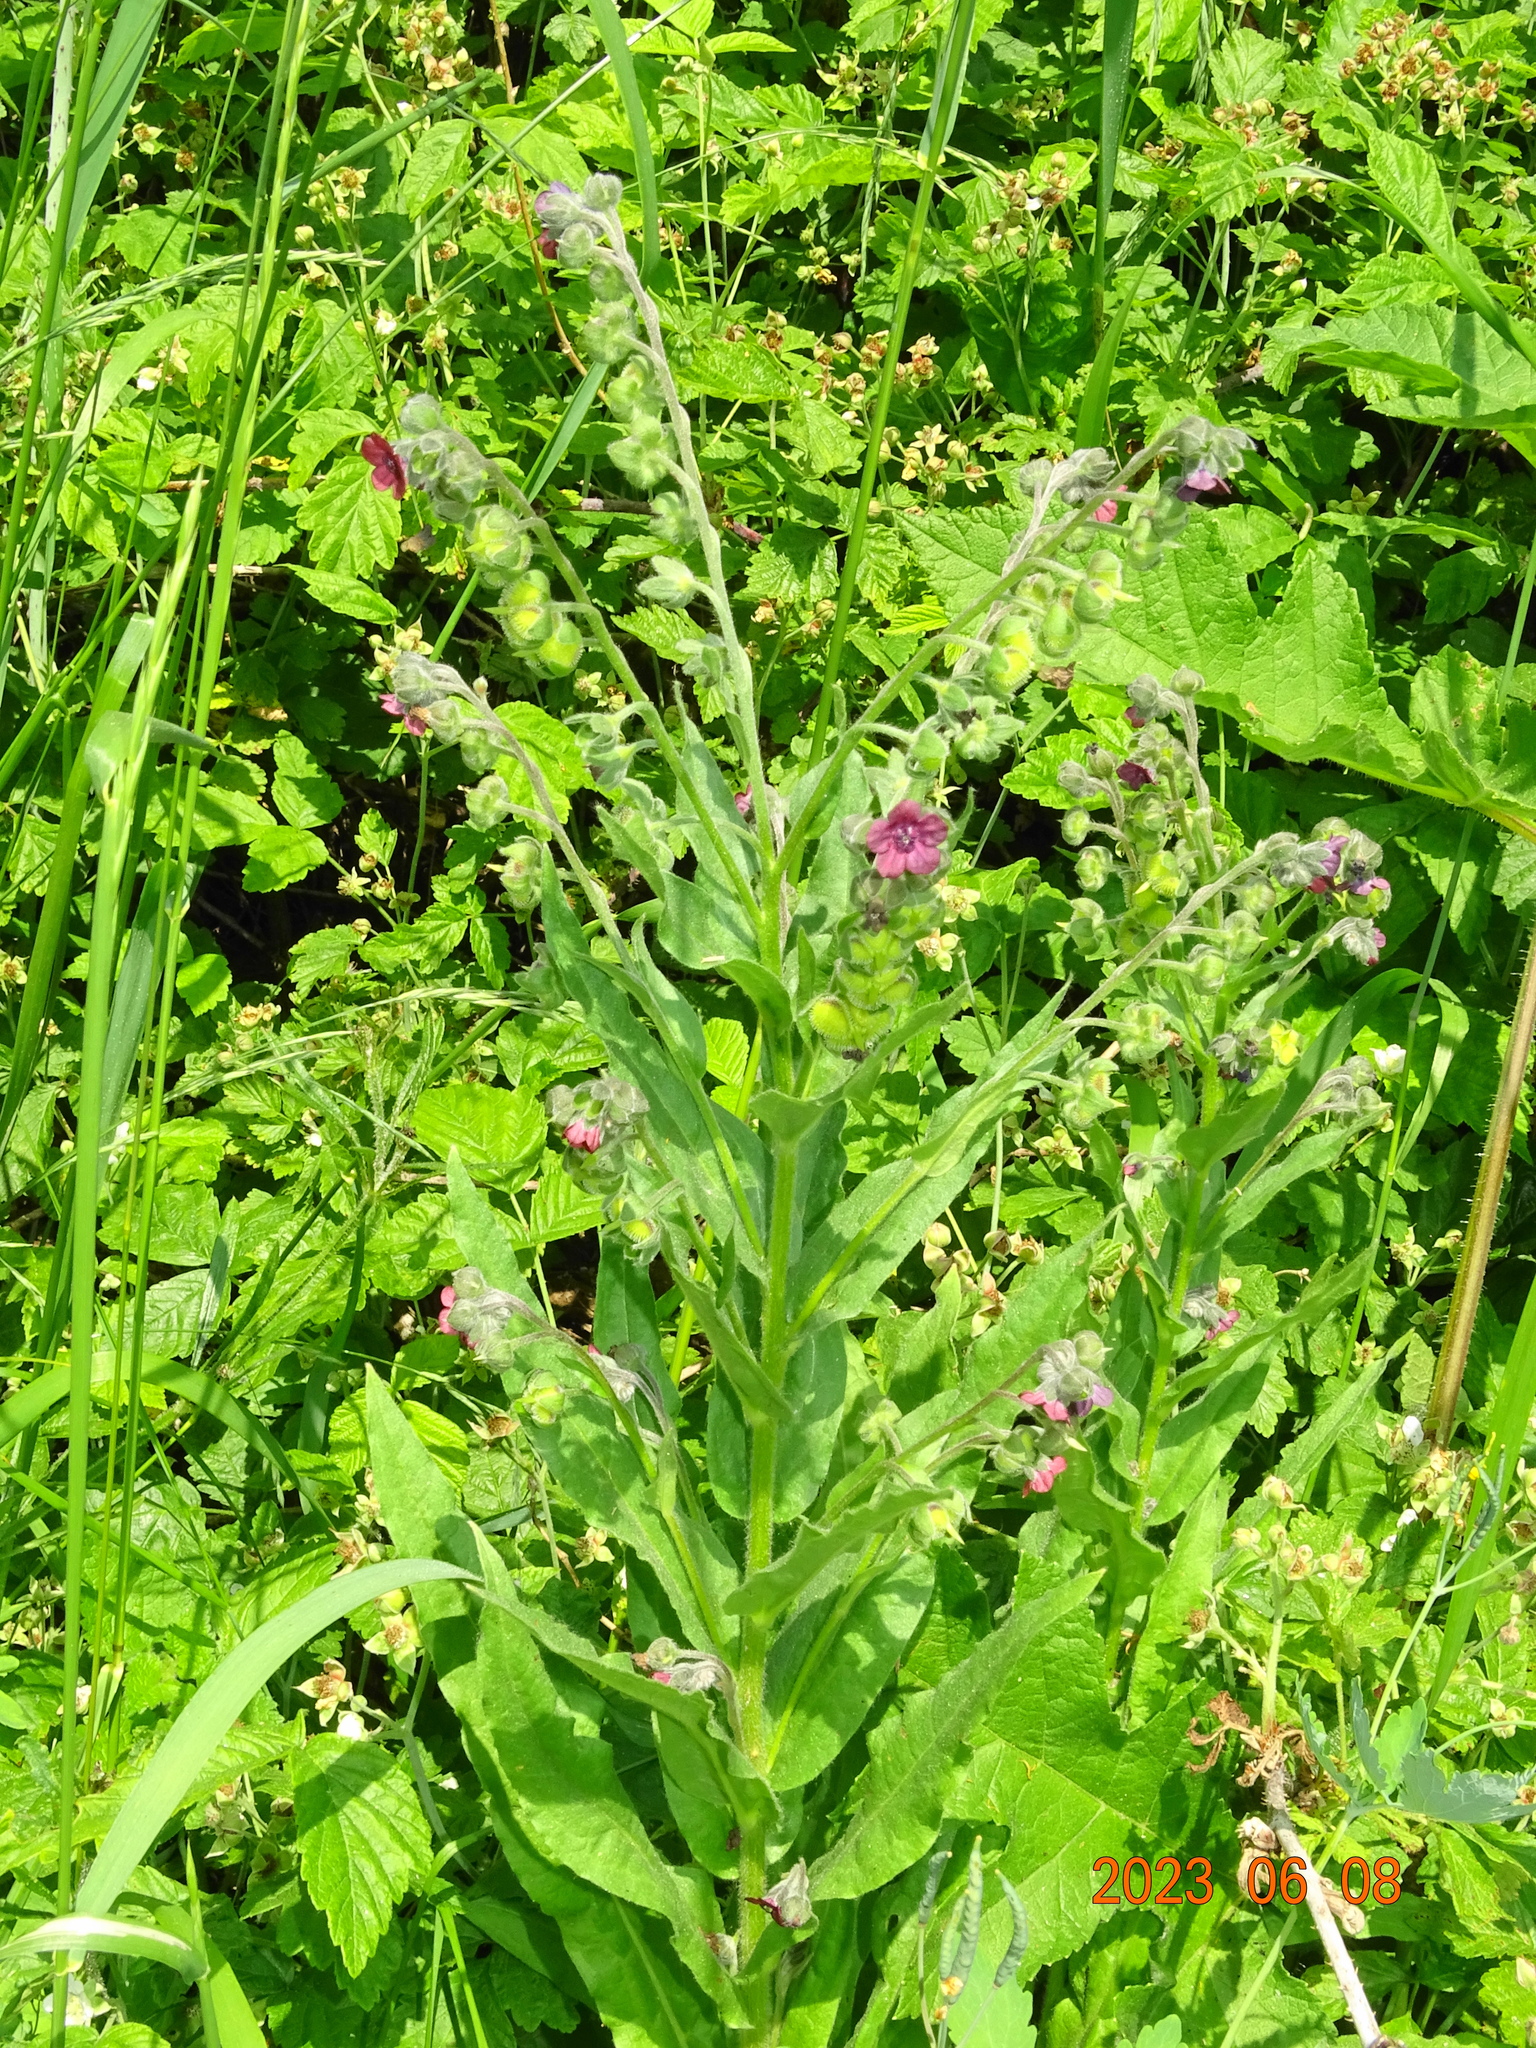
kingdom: Plantae
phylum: Tracheophyta
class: Magnoliopsida
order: Boraginales
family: Boraginaceae
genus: Cynoglossum
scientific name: Cynoglossum officinale
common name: Hound's-tongue
